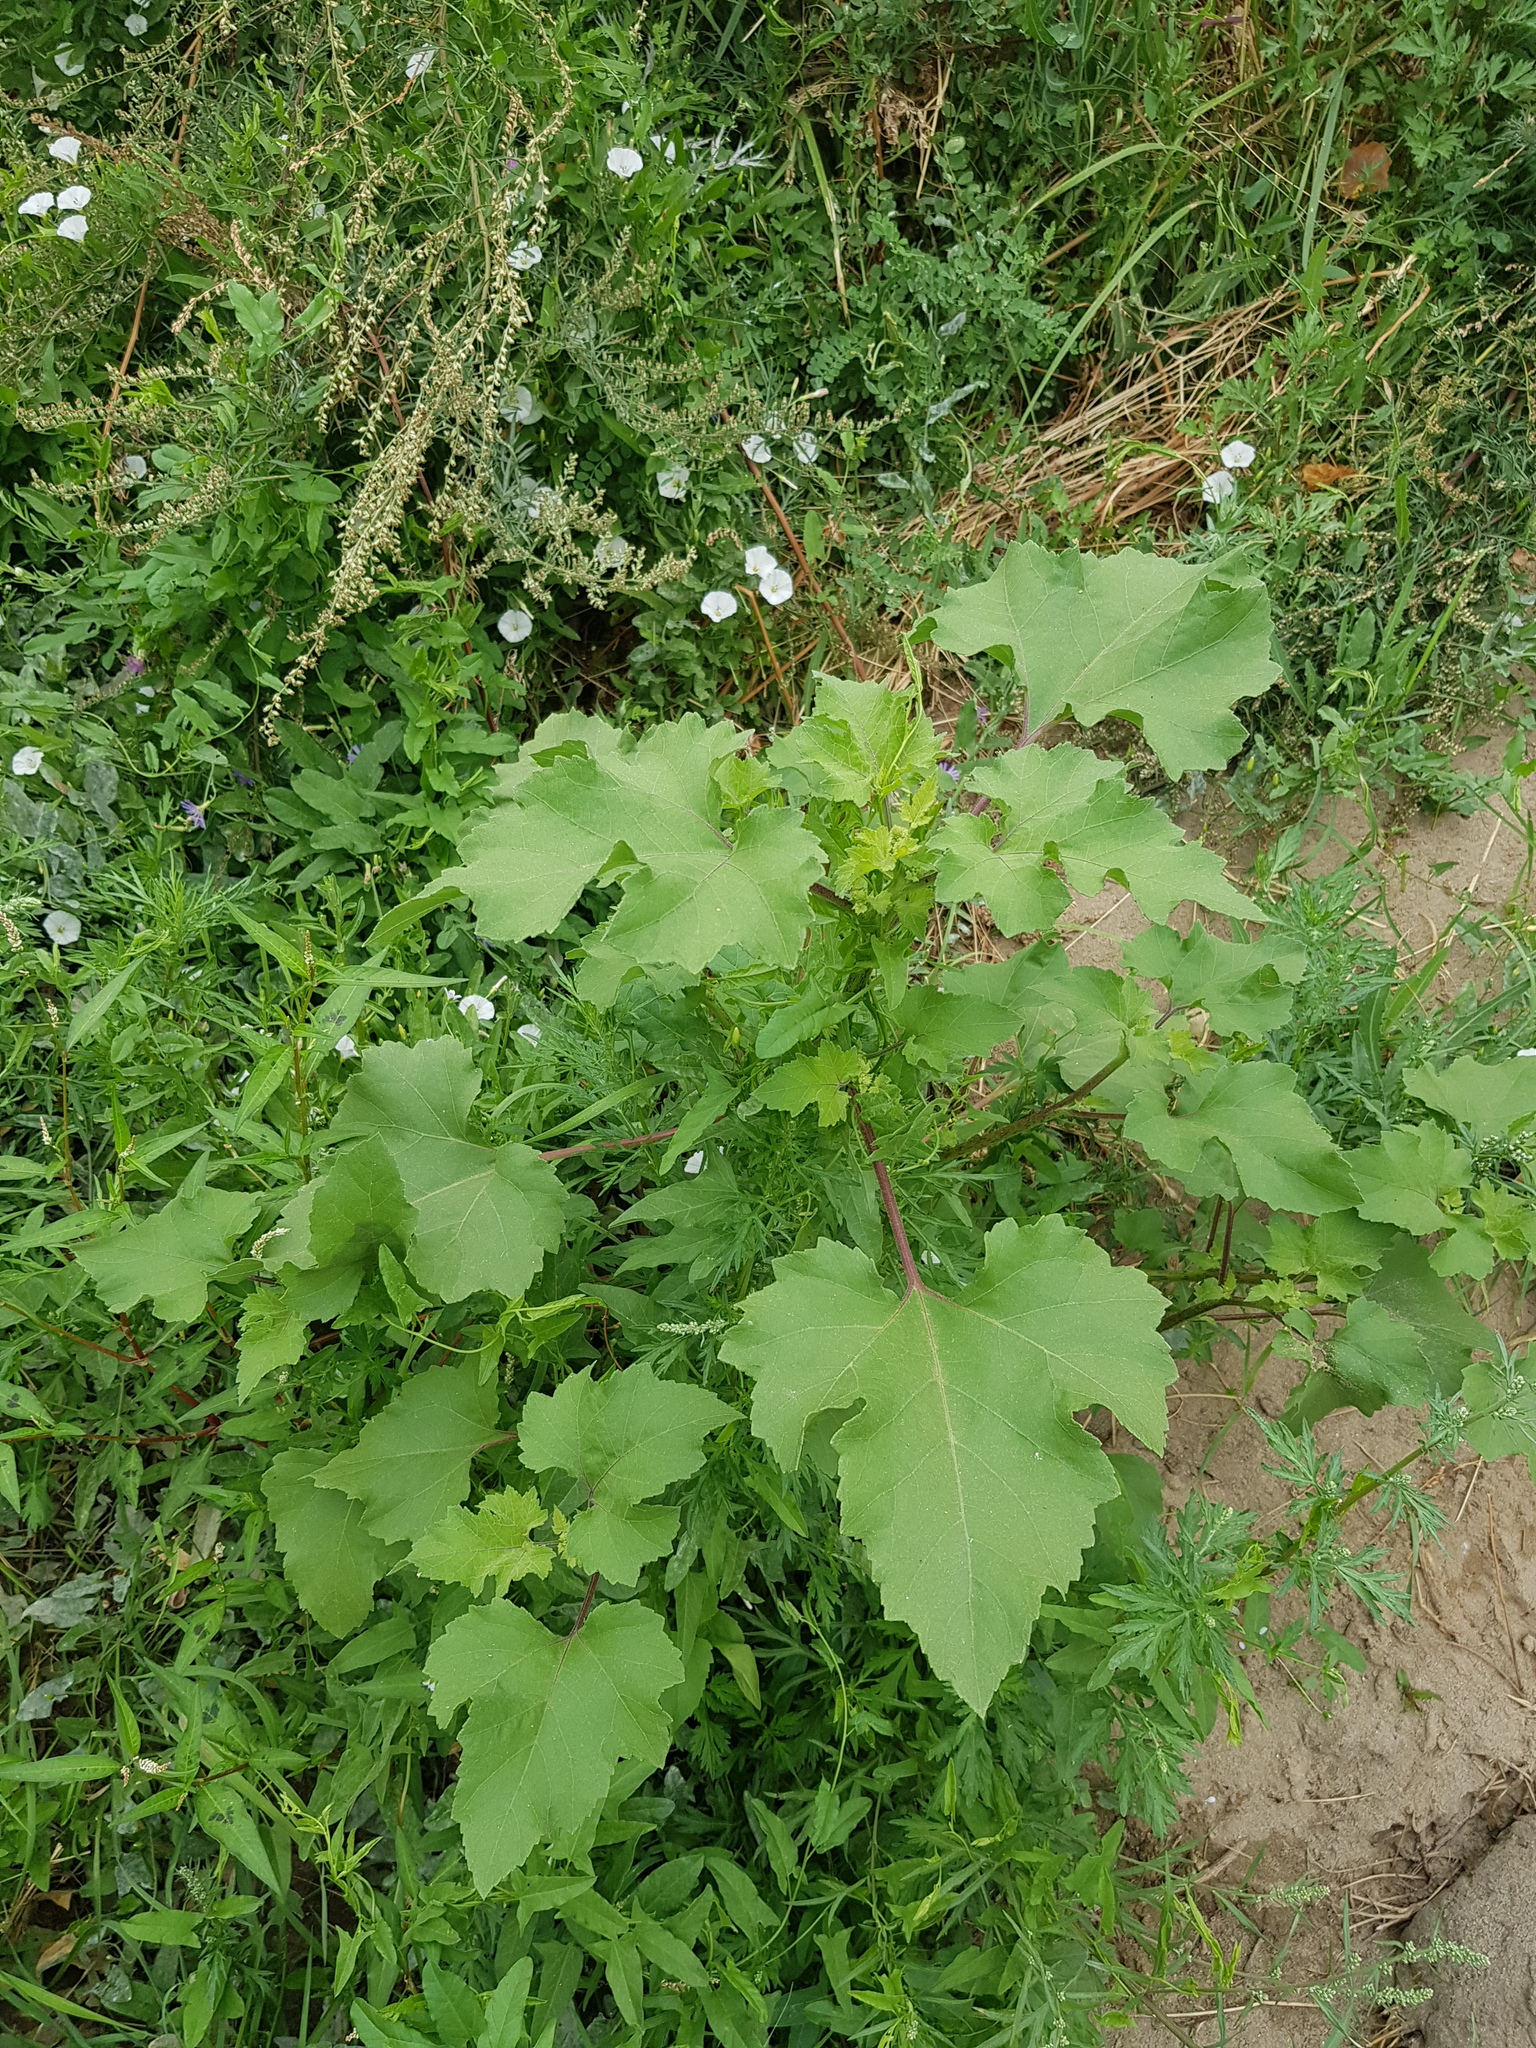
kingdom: Plantae
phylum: Tracheophyta
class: Magnoliopsida
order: Asterales
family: Asteraceae
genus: Xanthium
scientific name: Xanthium strumarium
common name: Rough cocklebur
